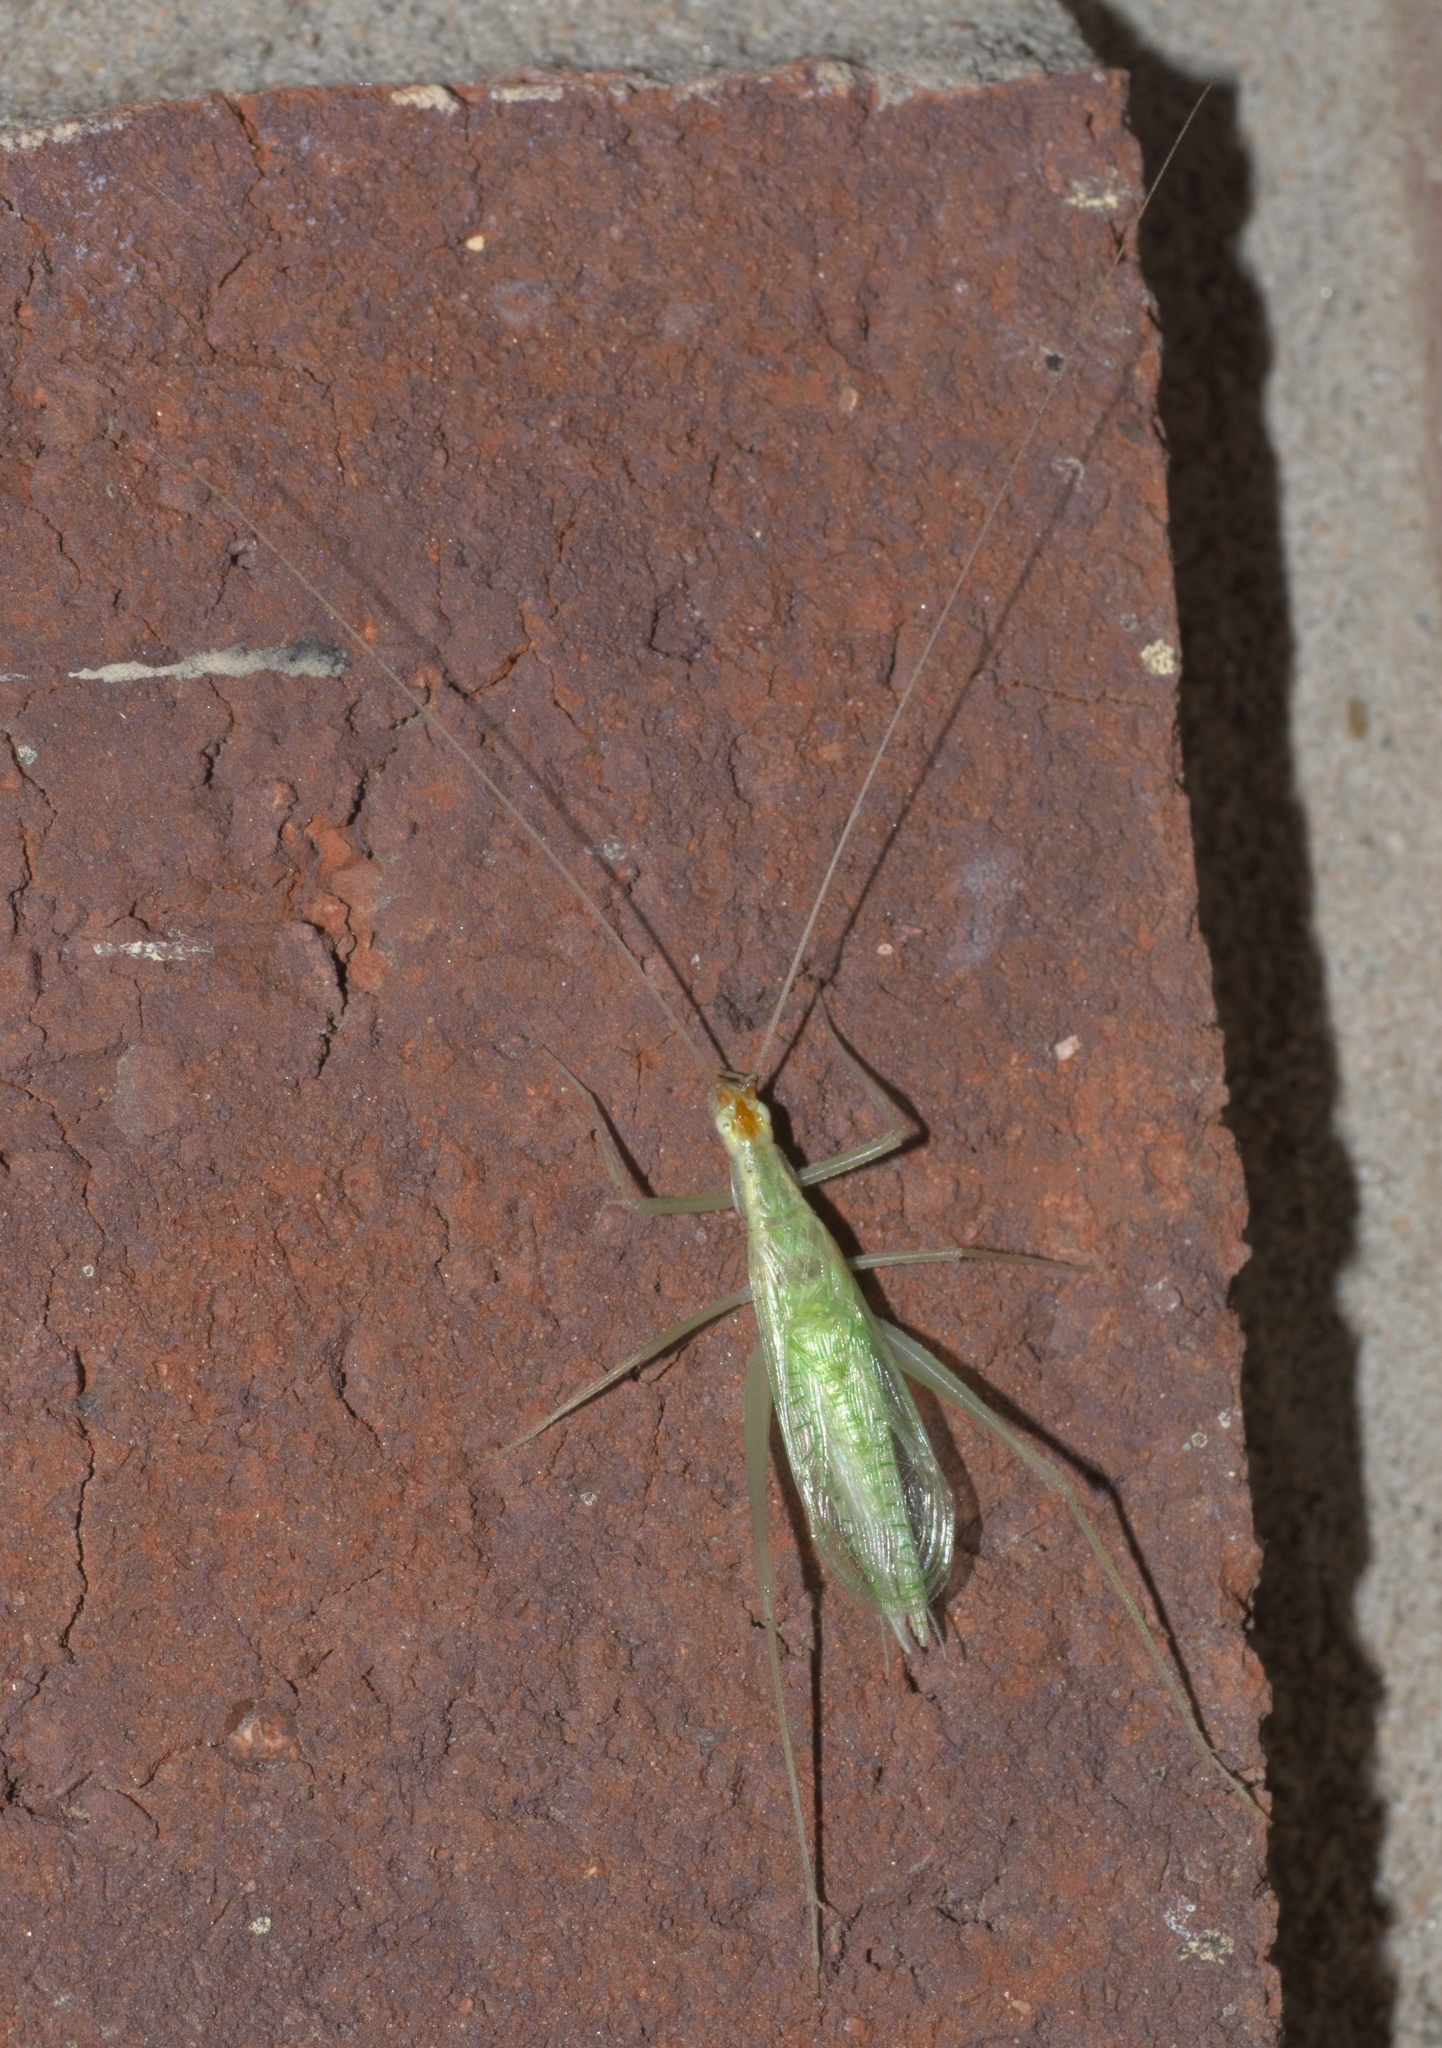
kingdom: Animalia
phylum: Arthropoda
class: Insecta
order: Orthoptera
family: Gryllidae
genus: Oecanthus
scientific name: Oecanthus niveus
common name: Narrow-winged tree cricket
